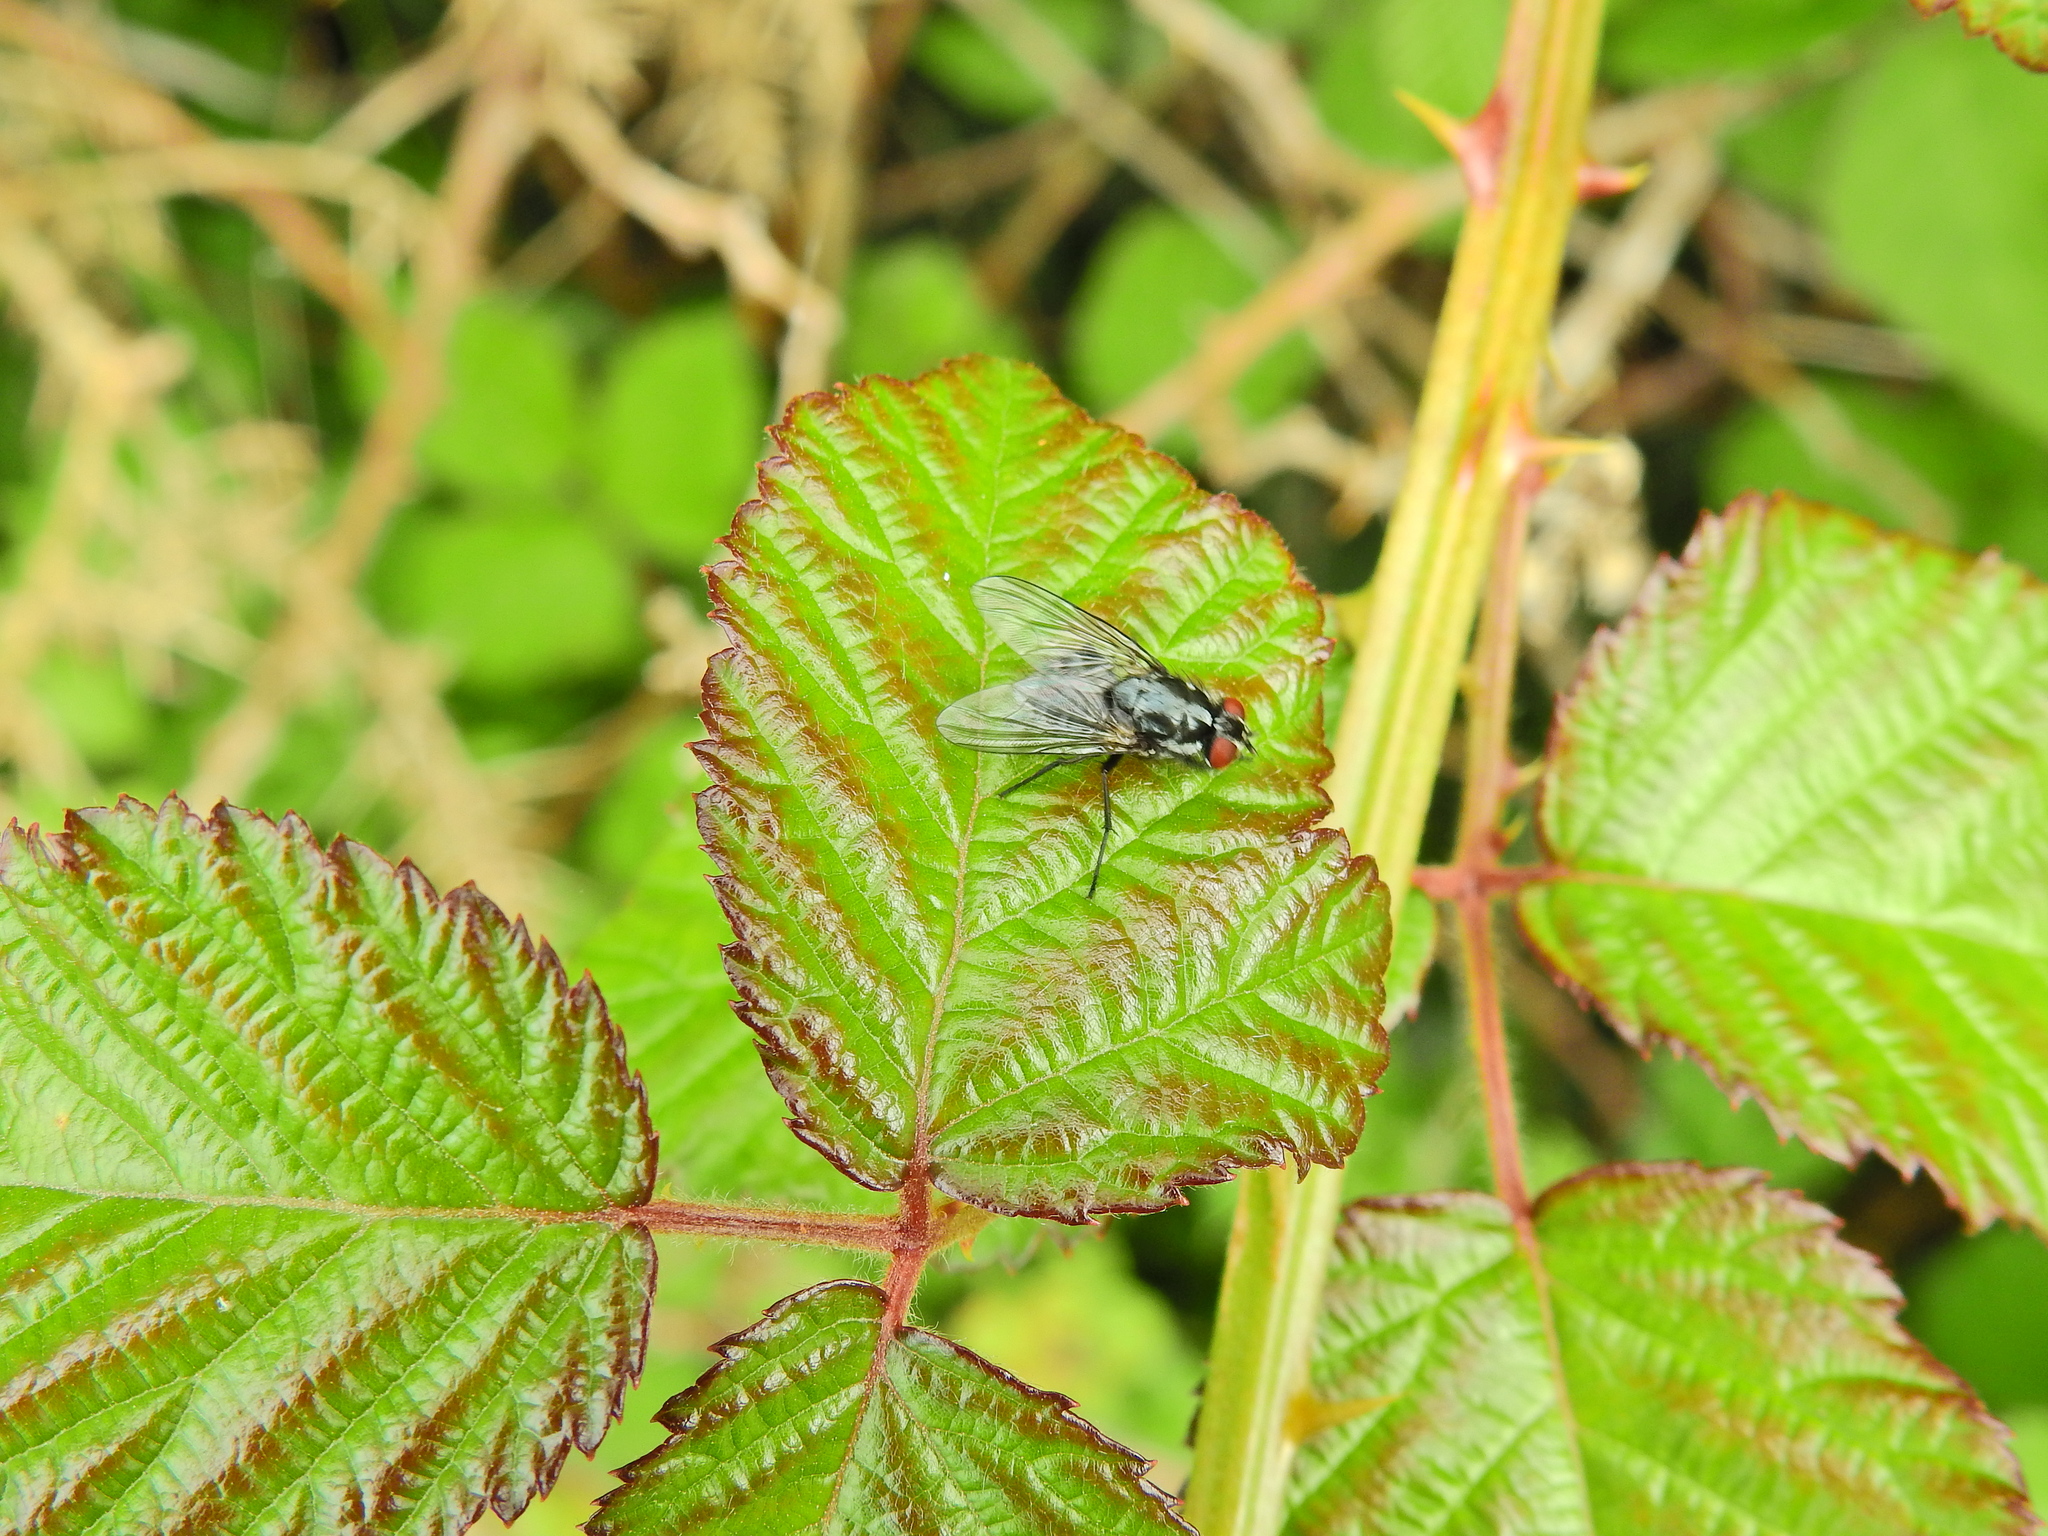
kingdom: Animalia
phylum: Arthropoda
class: Insecta
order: Diptera
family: Muscidae
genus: Polietes
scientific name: Polietes domitor
